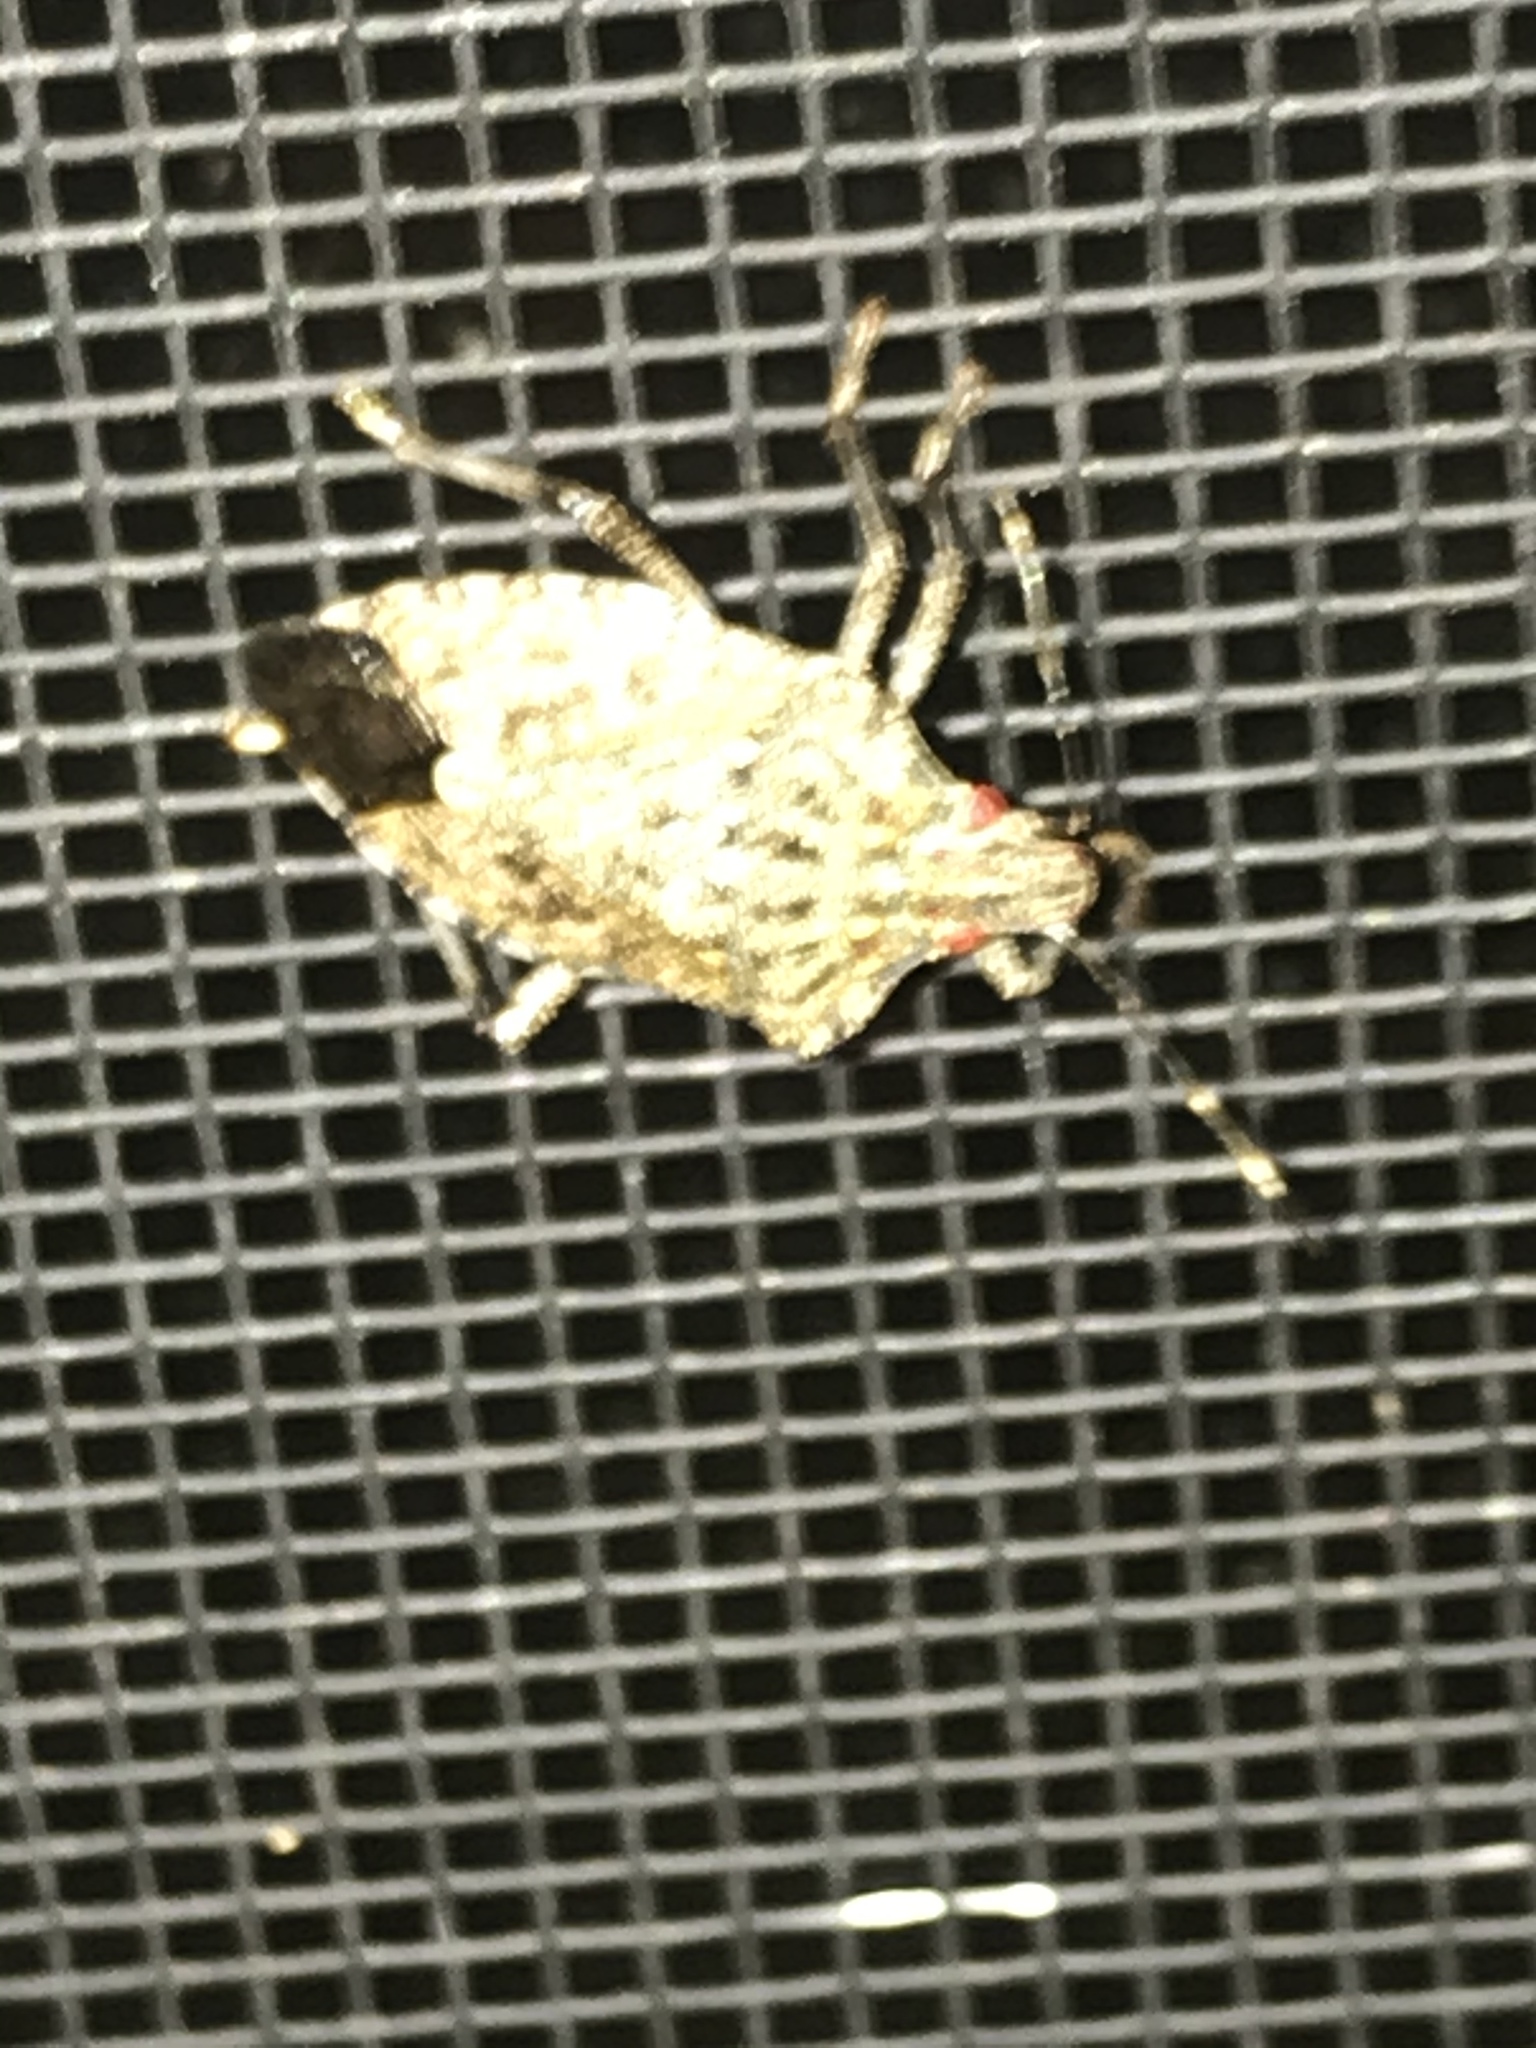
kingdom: Animalia
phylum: Arthropoda
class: Insecta
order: Hemiptera
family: Pentatomidae
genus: Halyomorpha
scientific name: Halyomorpha halys
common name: Brown marmorated stink bug
